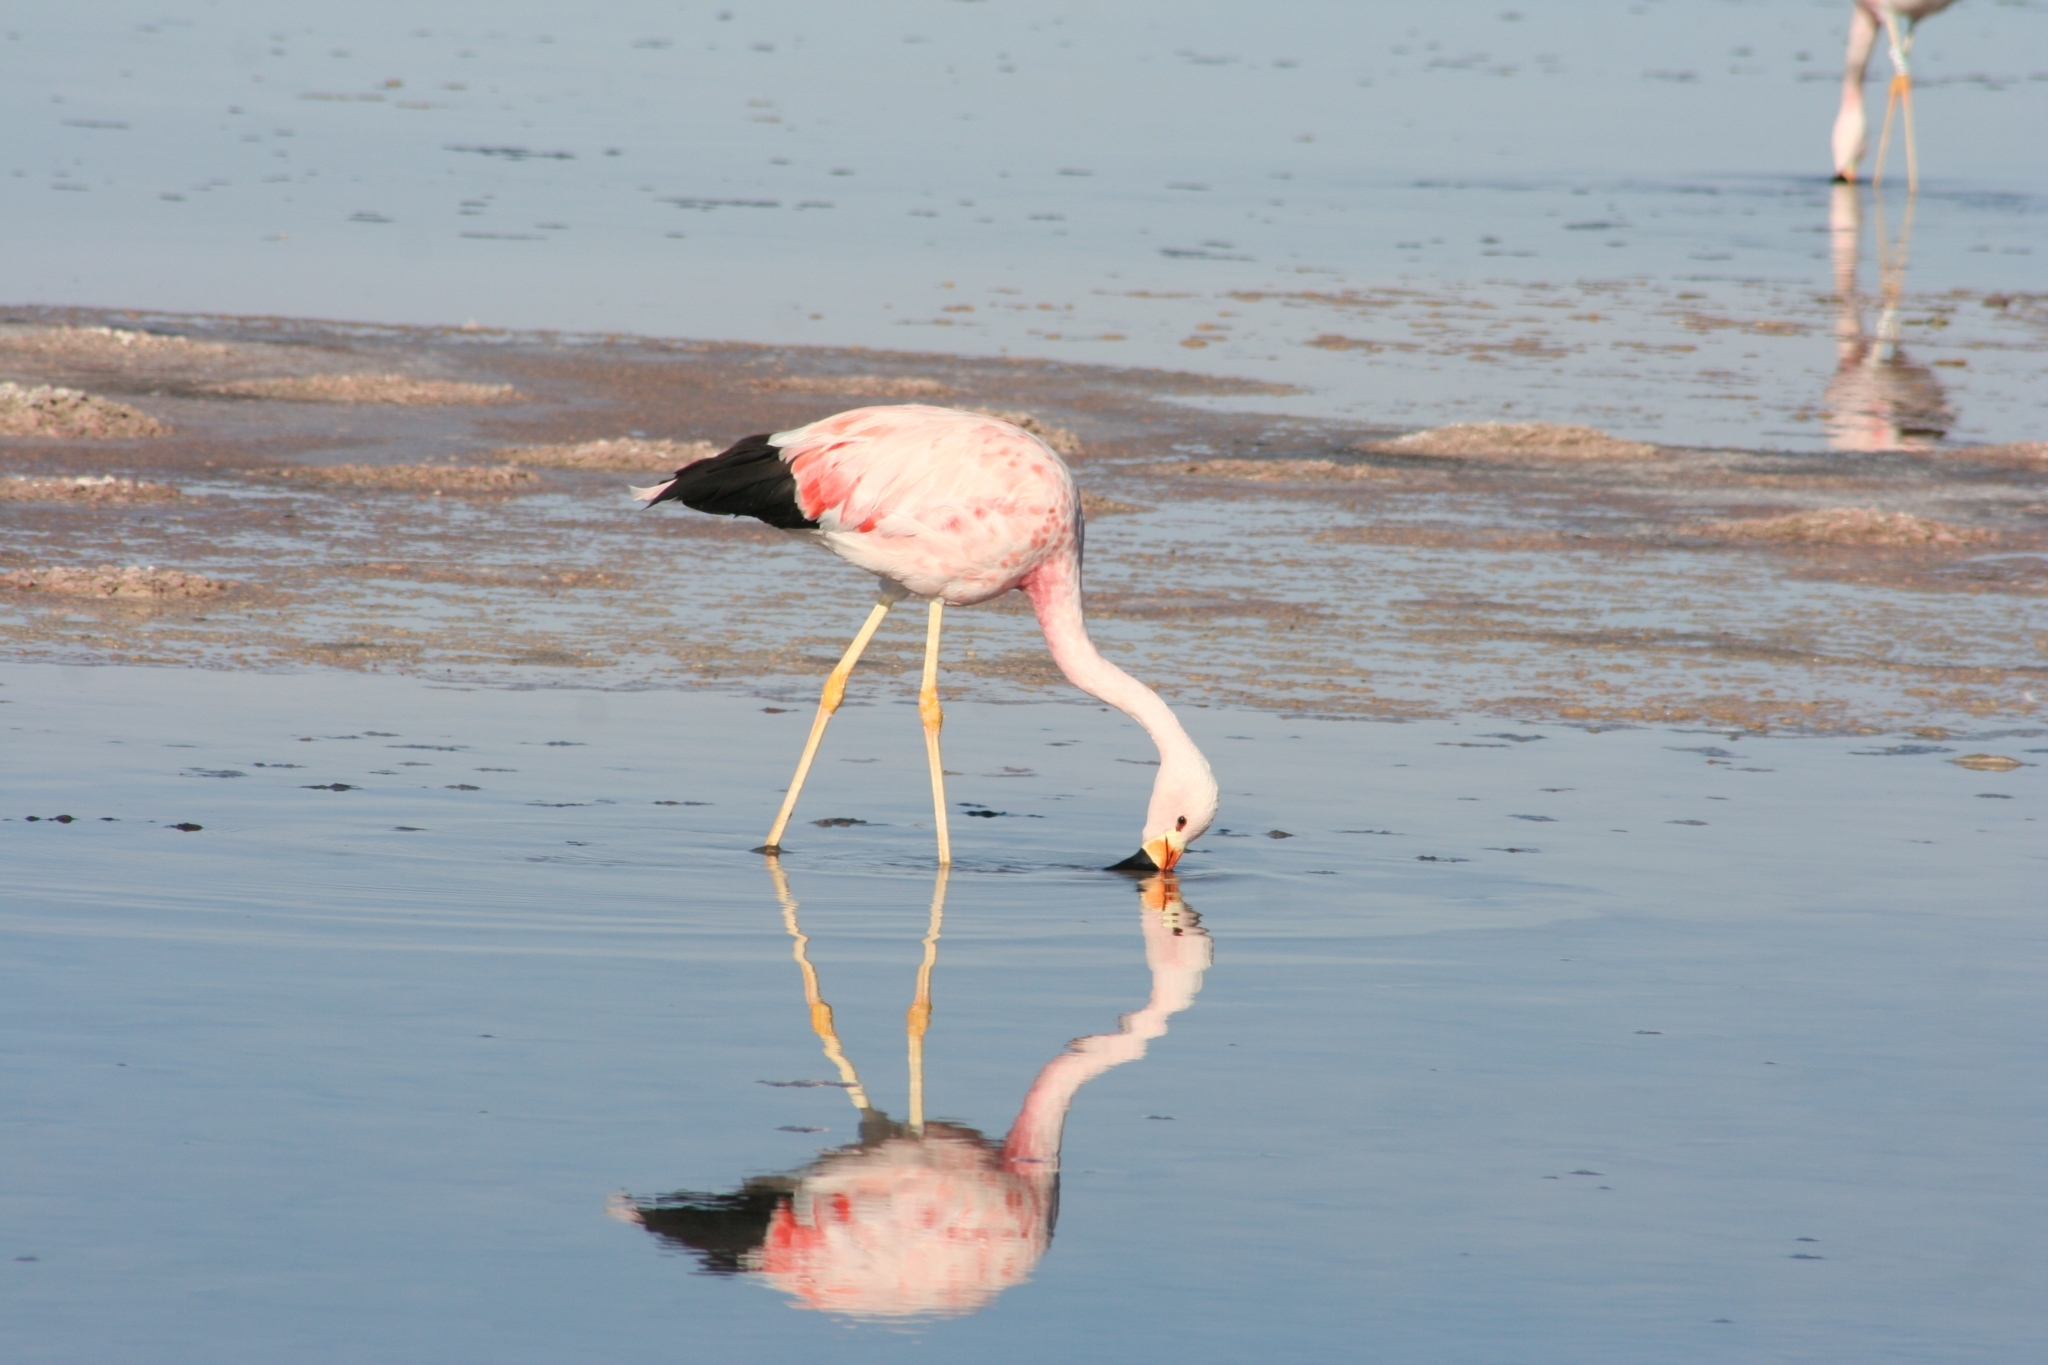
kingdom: Animalia
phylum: Chordata
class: Aves
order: Phoenicopteriformes
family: Phoenicopteridae
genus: Phoenicoparrus
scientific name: Phoenicoparrus andinus
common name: Andean flamingo
